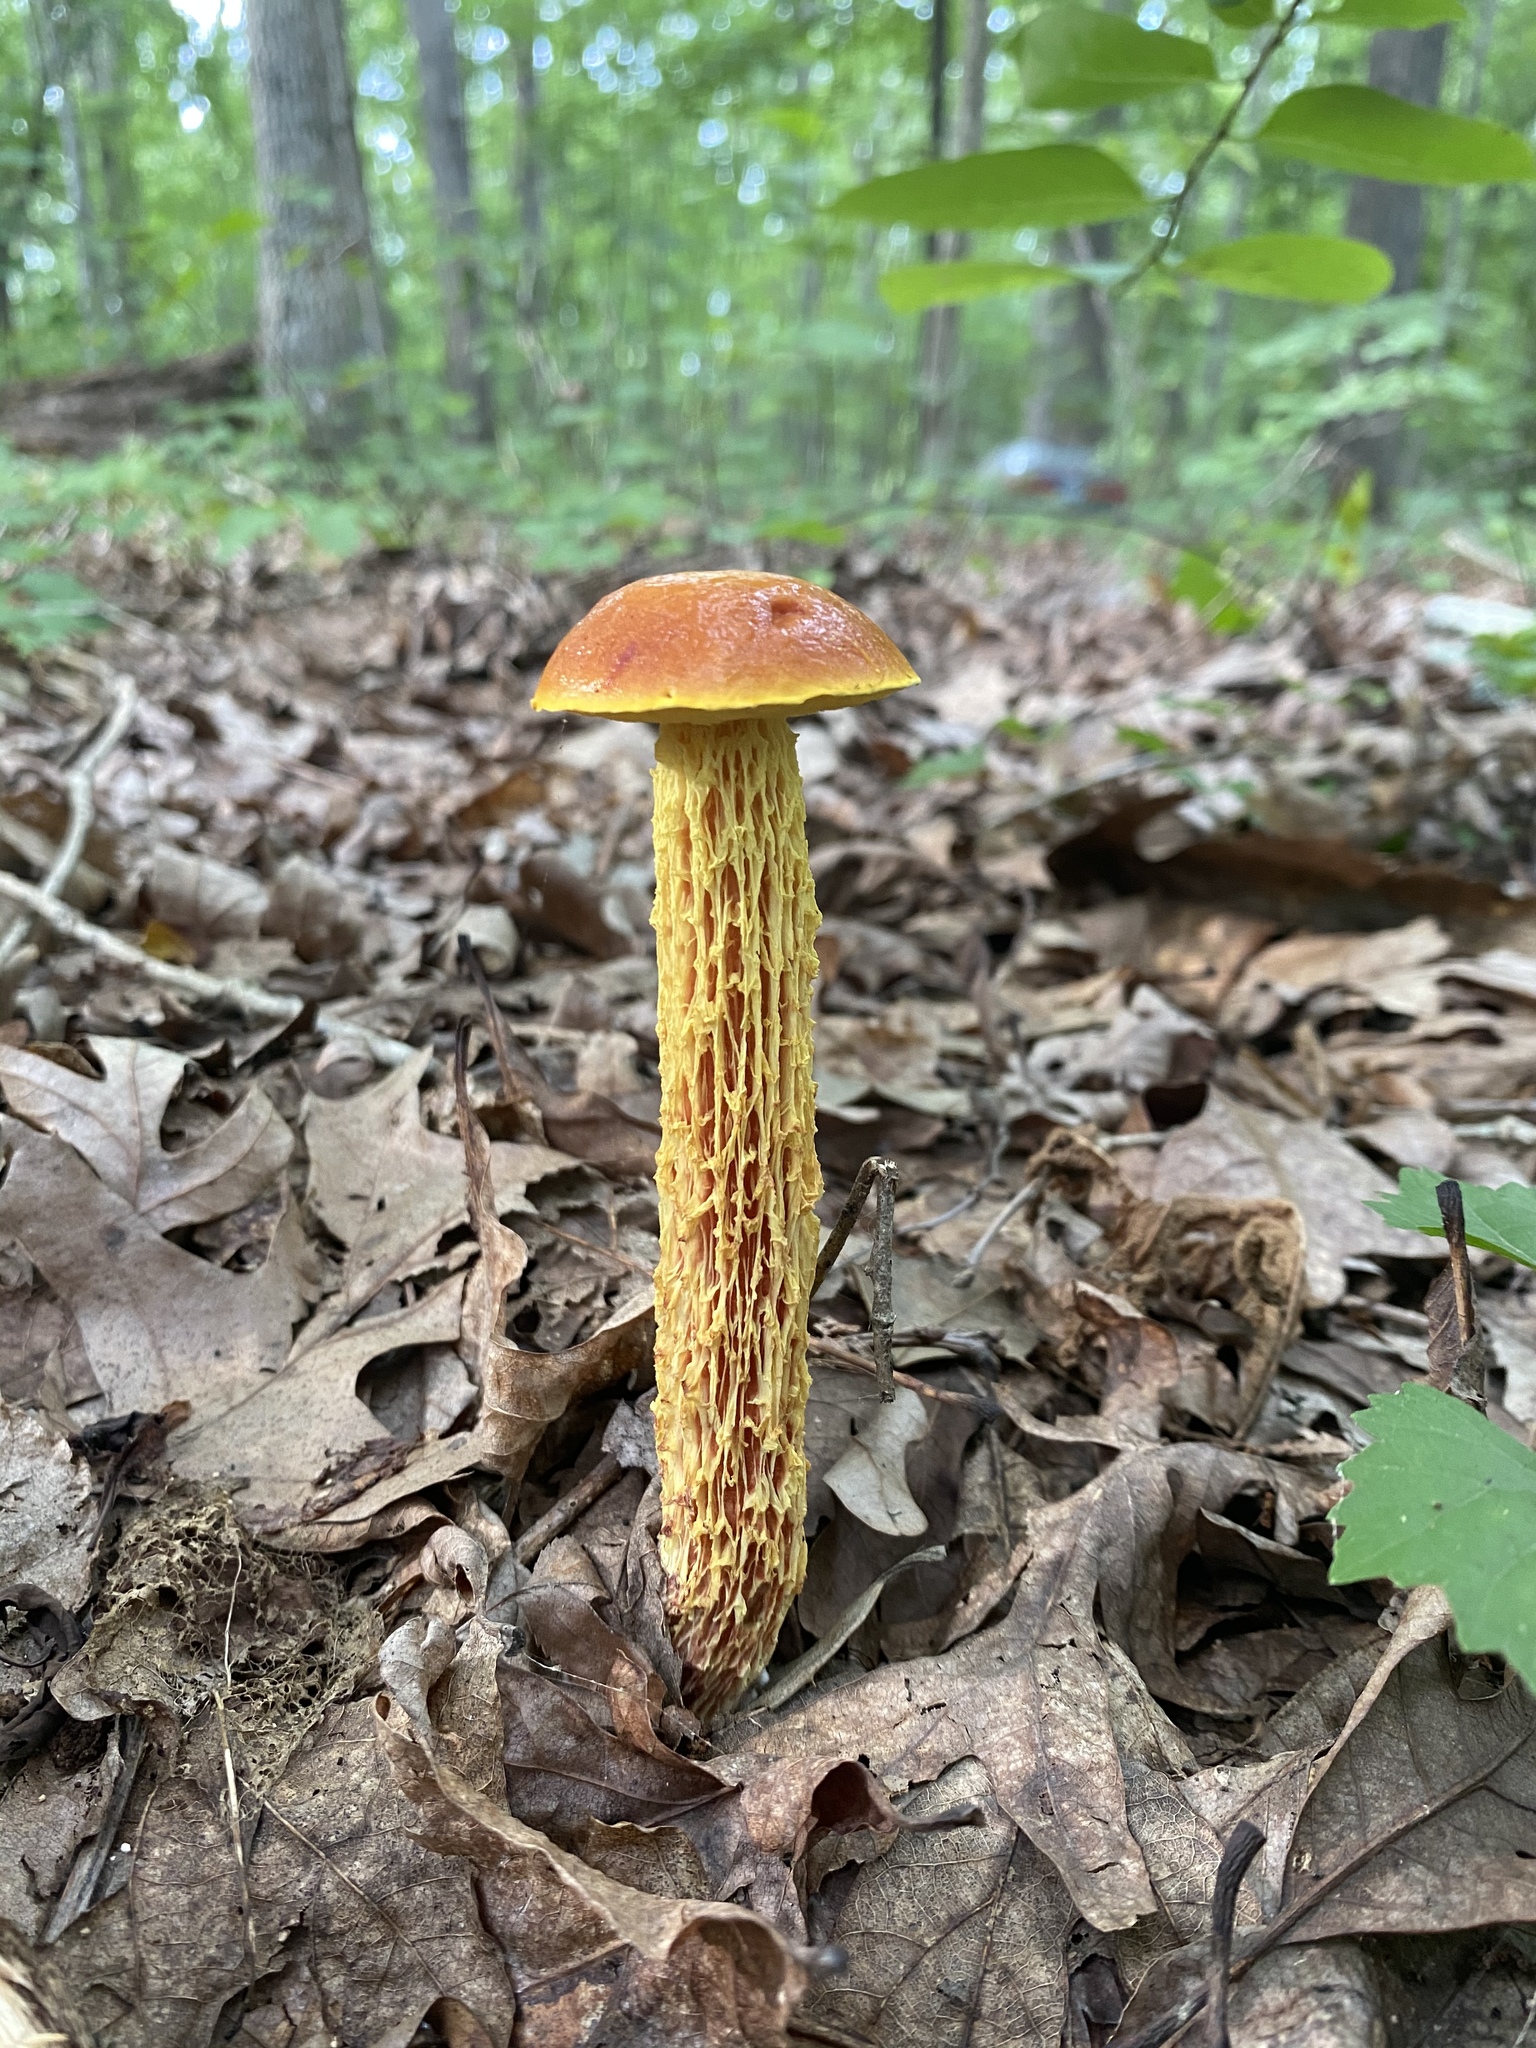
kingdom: Fungi
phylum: Basidiomycota
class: Agaricomycetes
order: Boletales
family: Boletaceae
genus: Aureoboletus
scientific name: Aureoboletus betula
